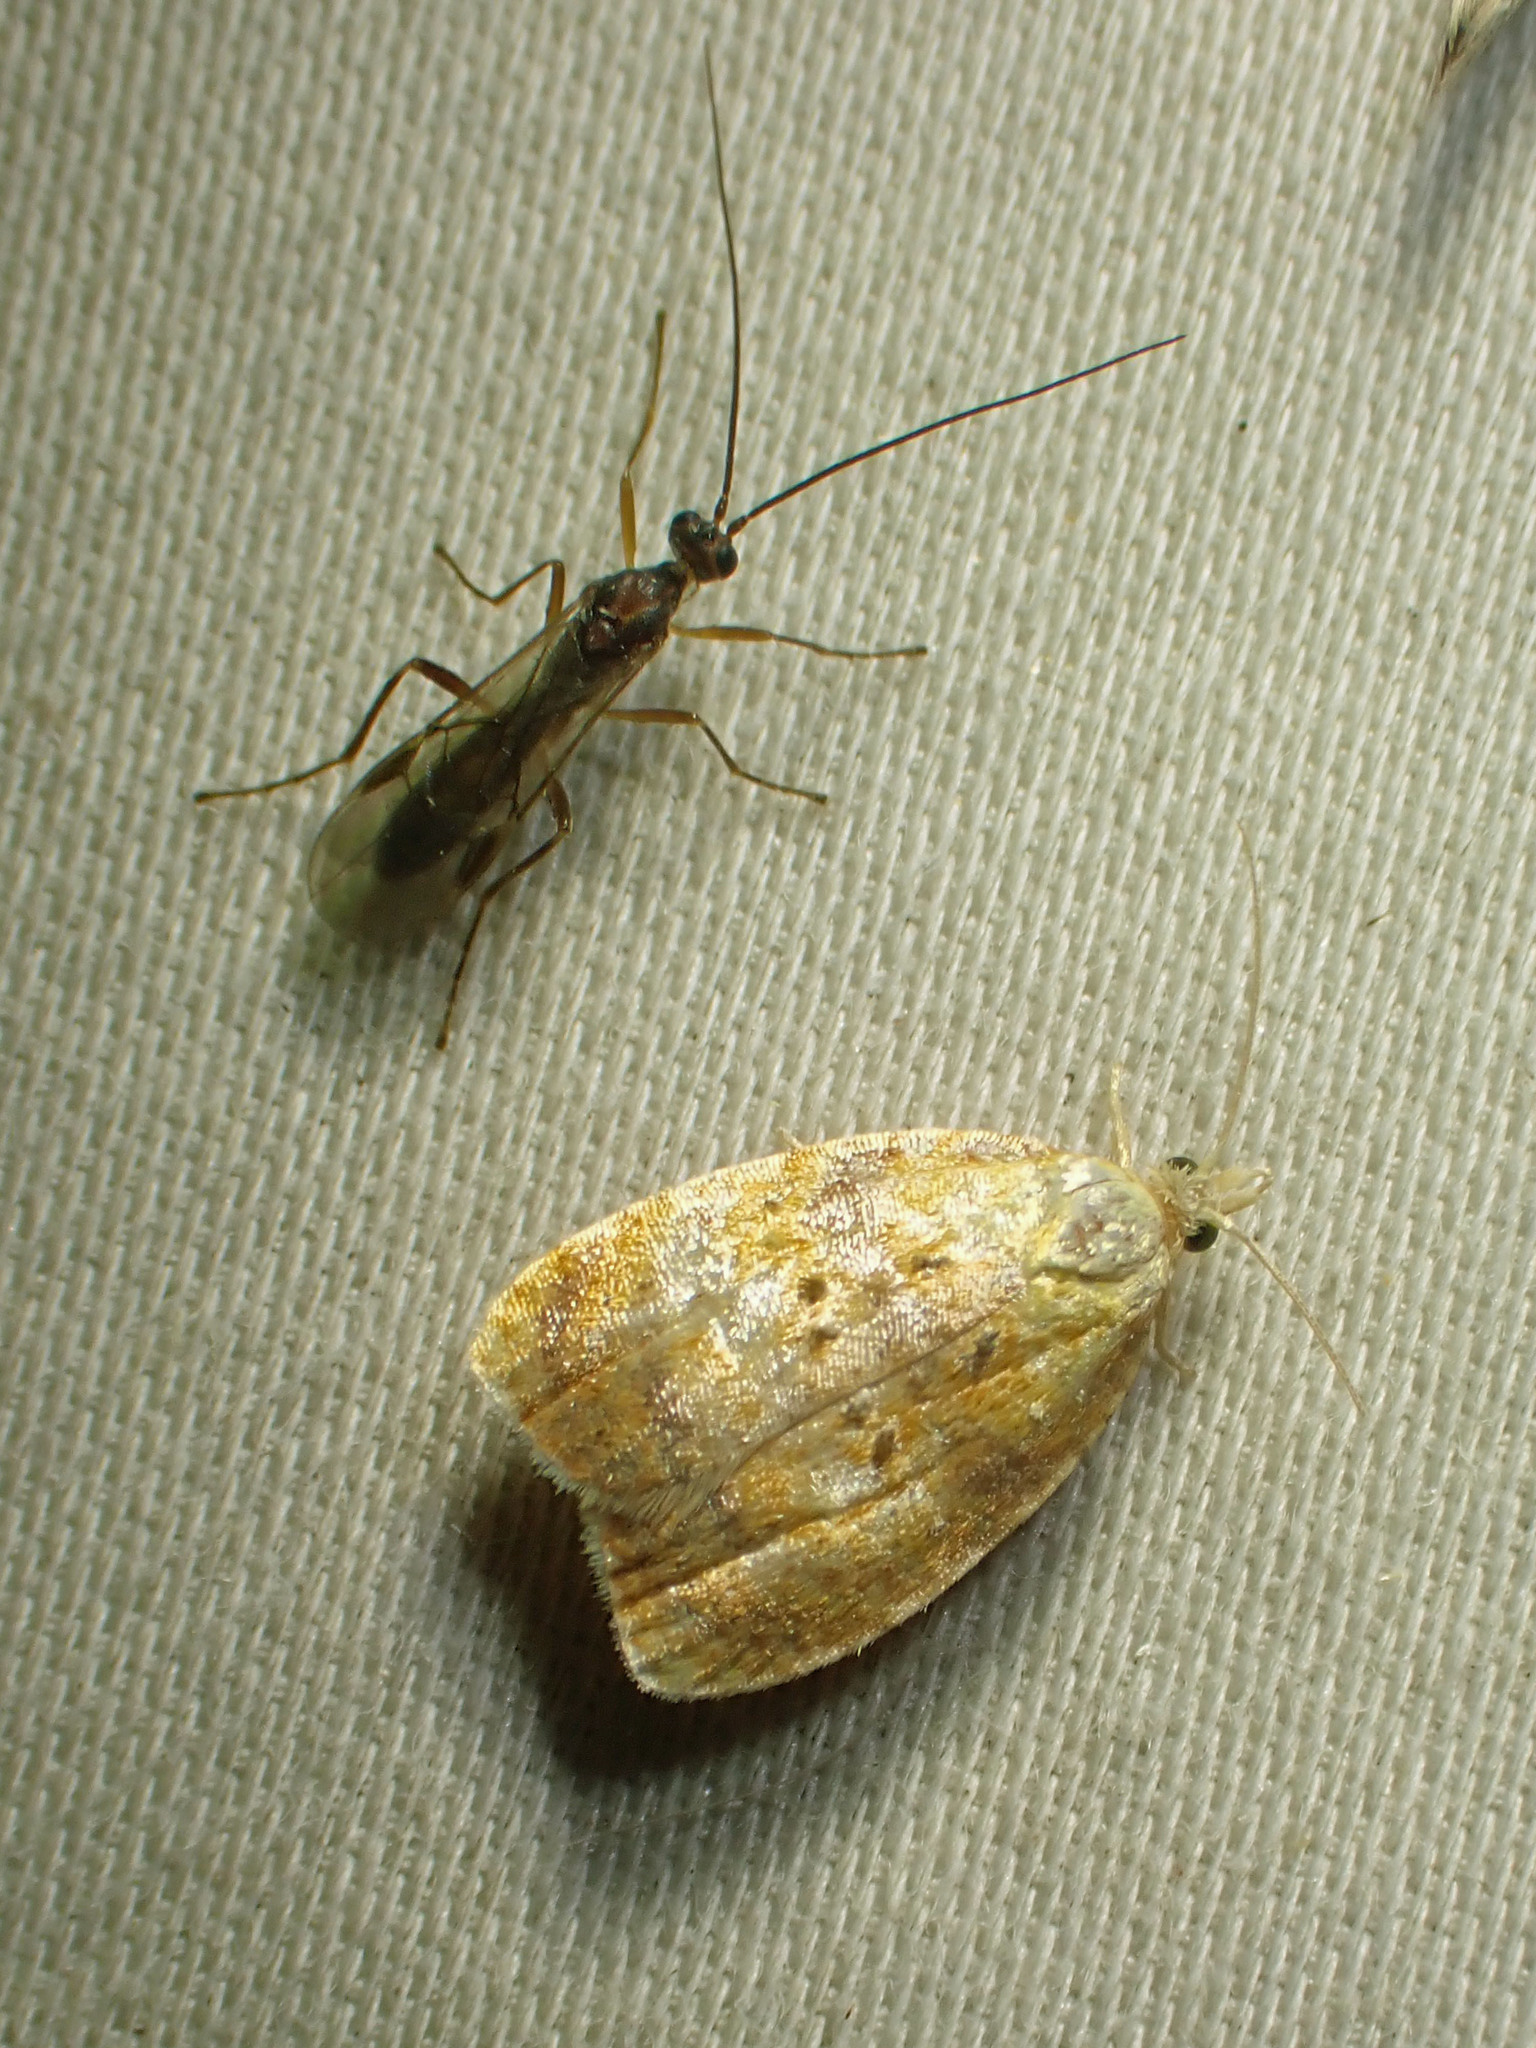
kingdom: Animalia
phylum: Arthropoda
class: Insecta
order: Lepidoptera
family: Tortricidae
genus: Acleris
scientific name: Acleris curvalana
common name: Blueberry leaftier moth
